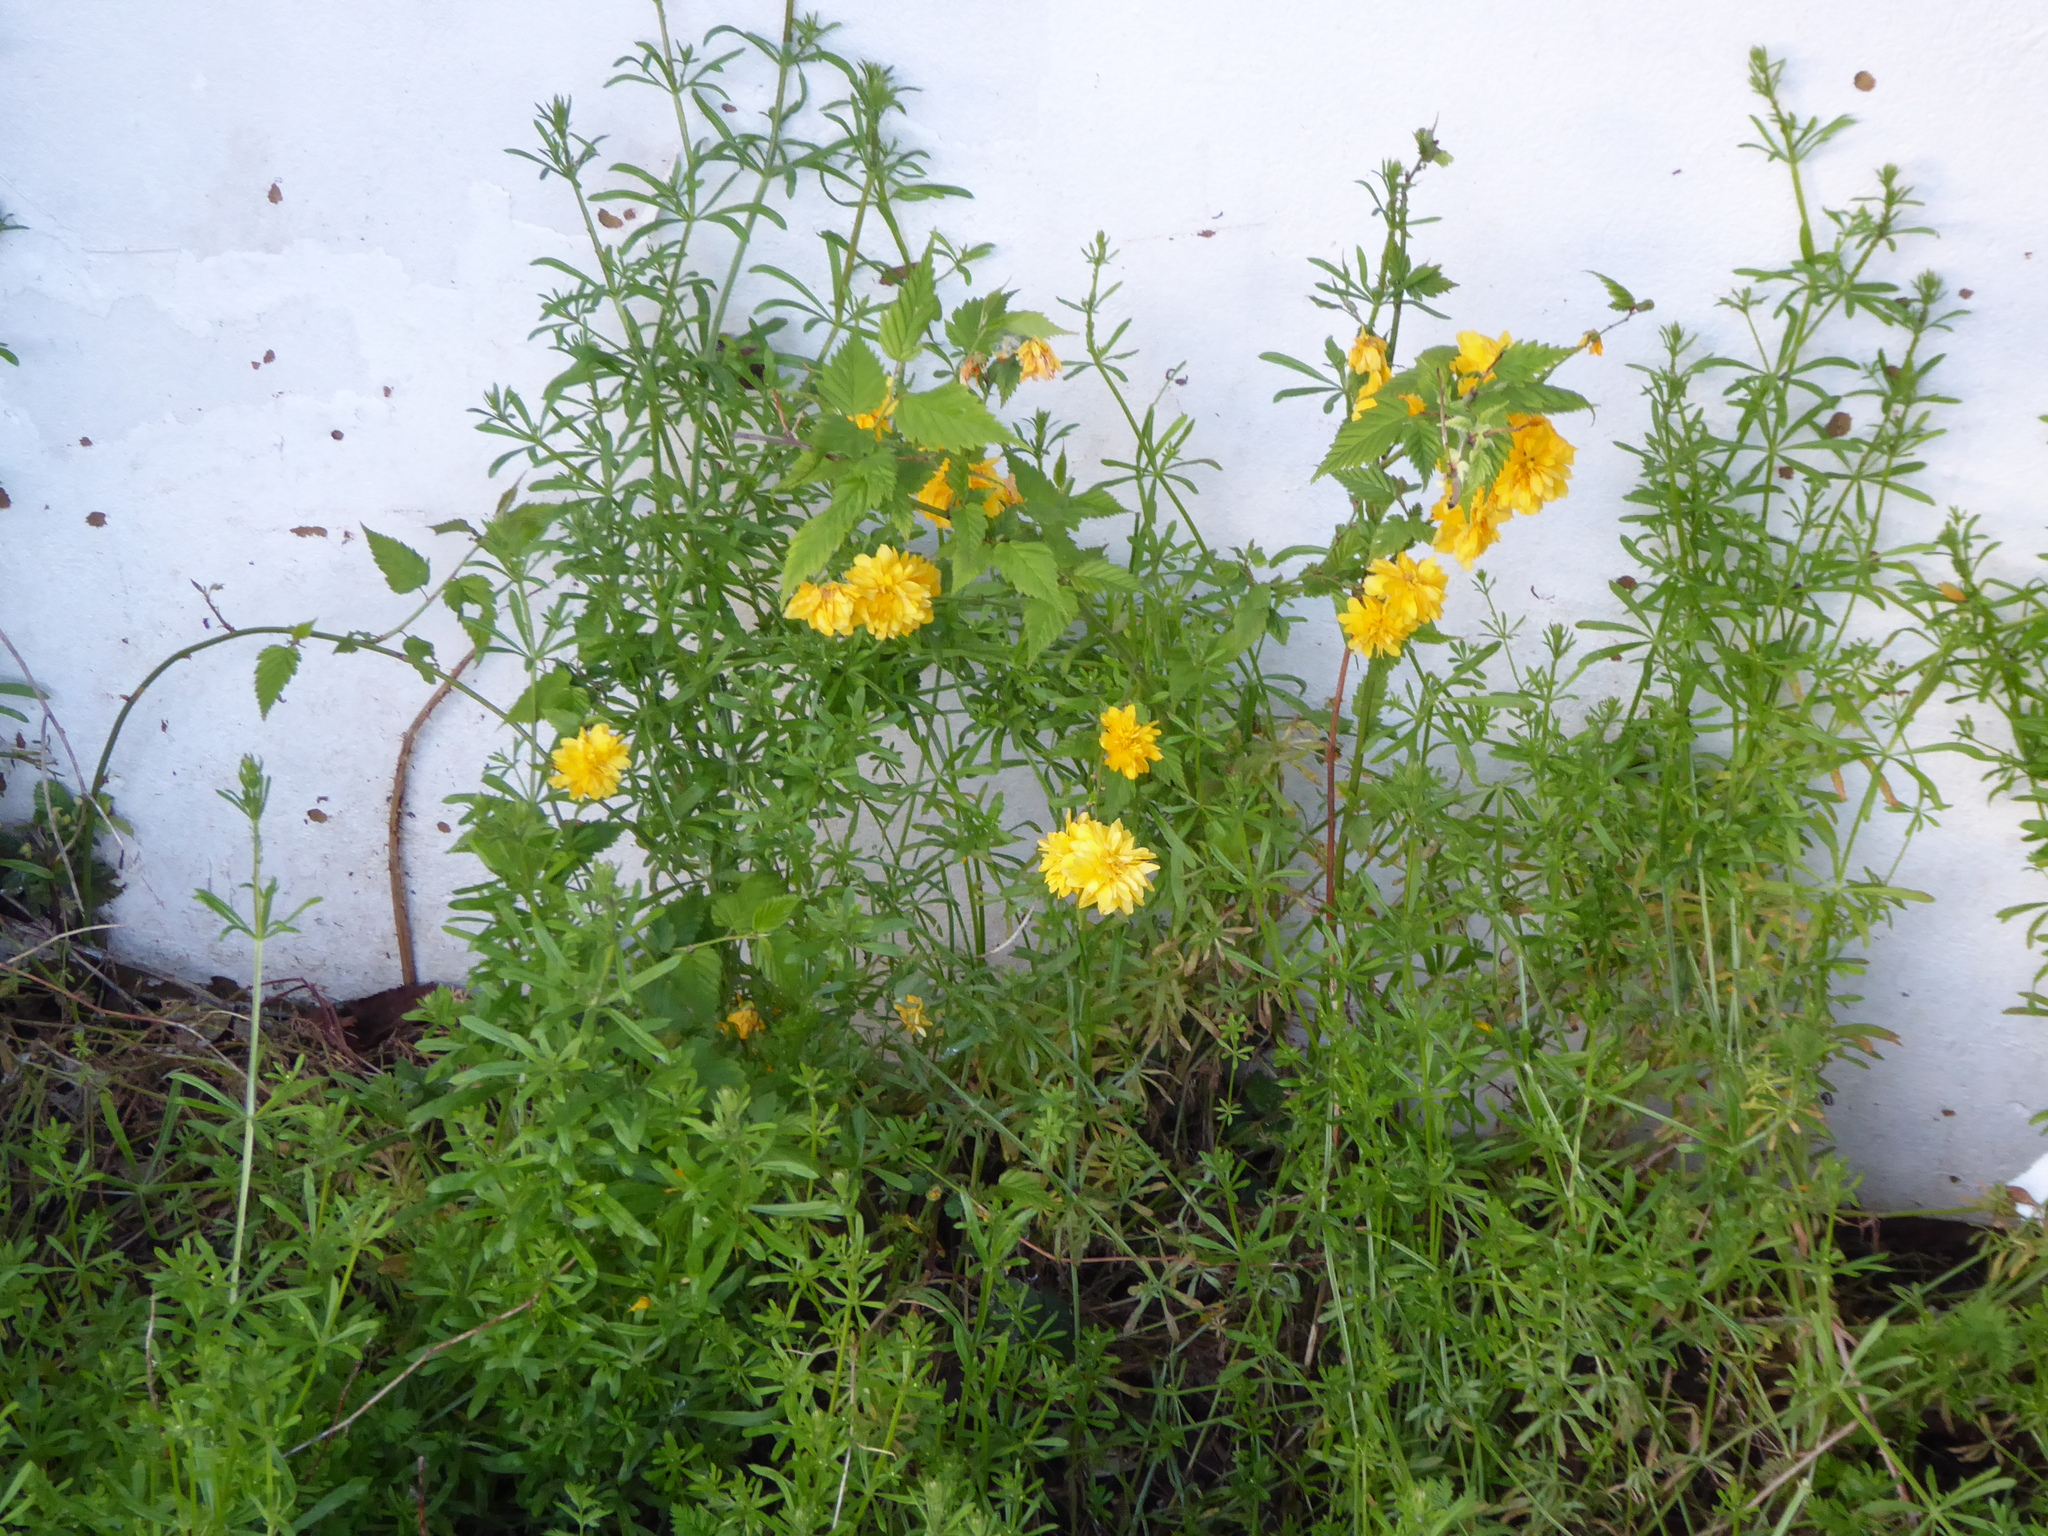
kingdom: Plantae
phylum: Tracheophyta
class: Magnoliopsida
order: Rosales
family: Rosaceae
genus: Kerria
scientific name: Kerria japonica
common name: Japanese kerria
